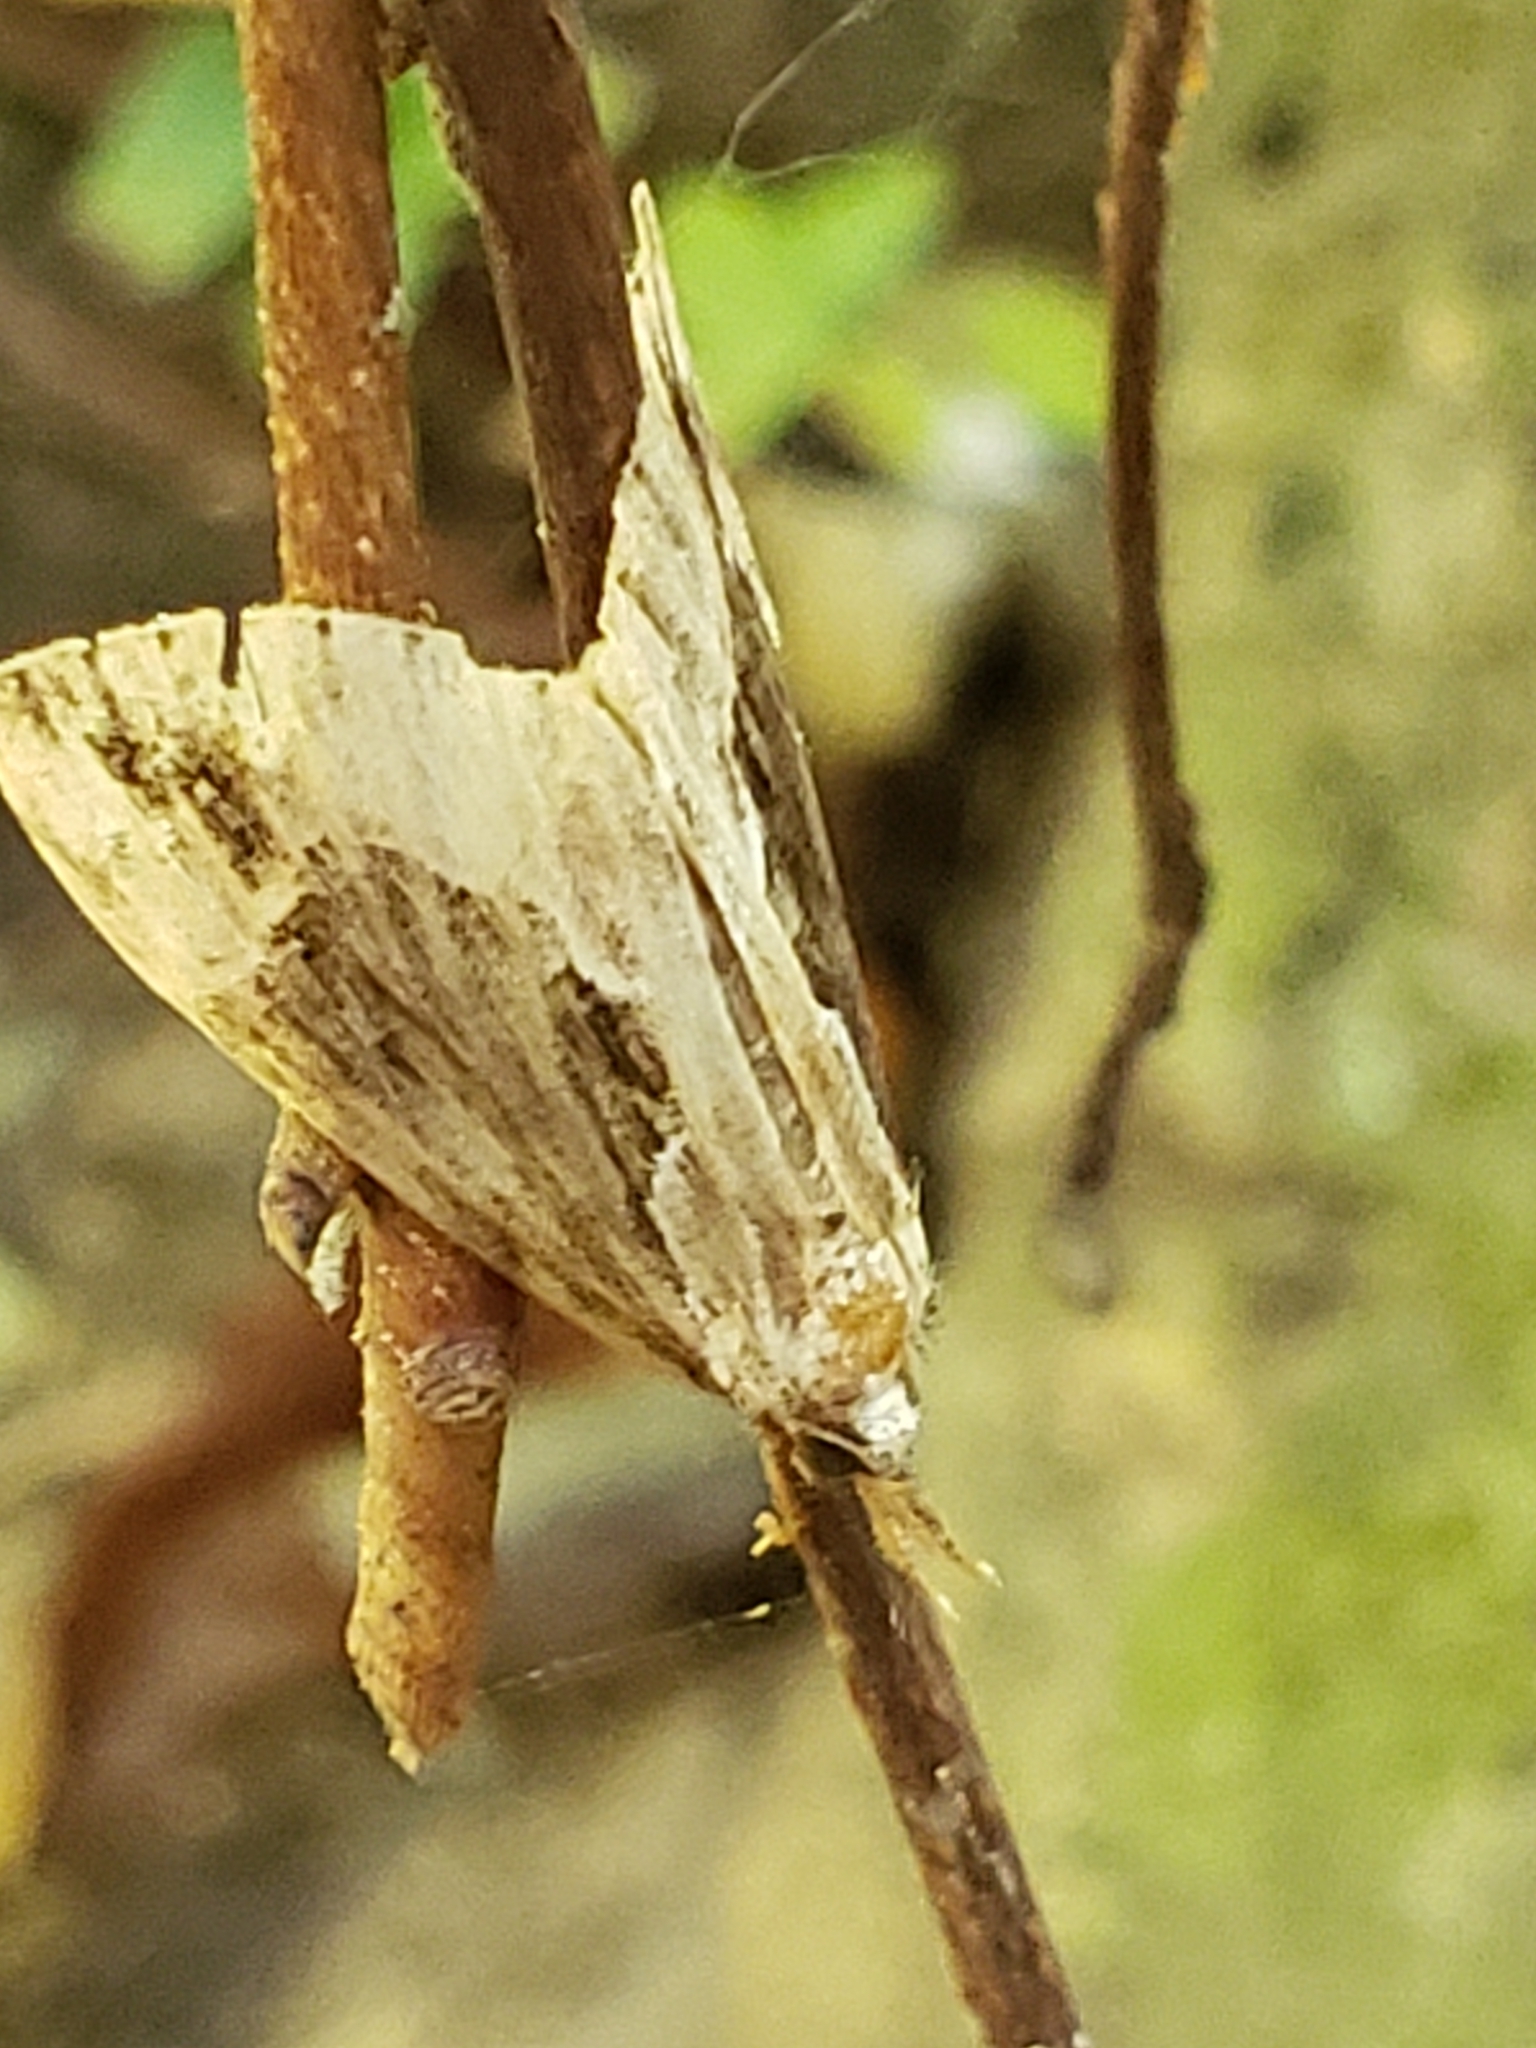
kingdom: Animalia
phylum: Arthropoda
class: Insecta
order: Lepidoptera
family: Erebidae
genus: Hypena
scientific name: Hypena baltimoralis
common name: Baltimore snout
